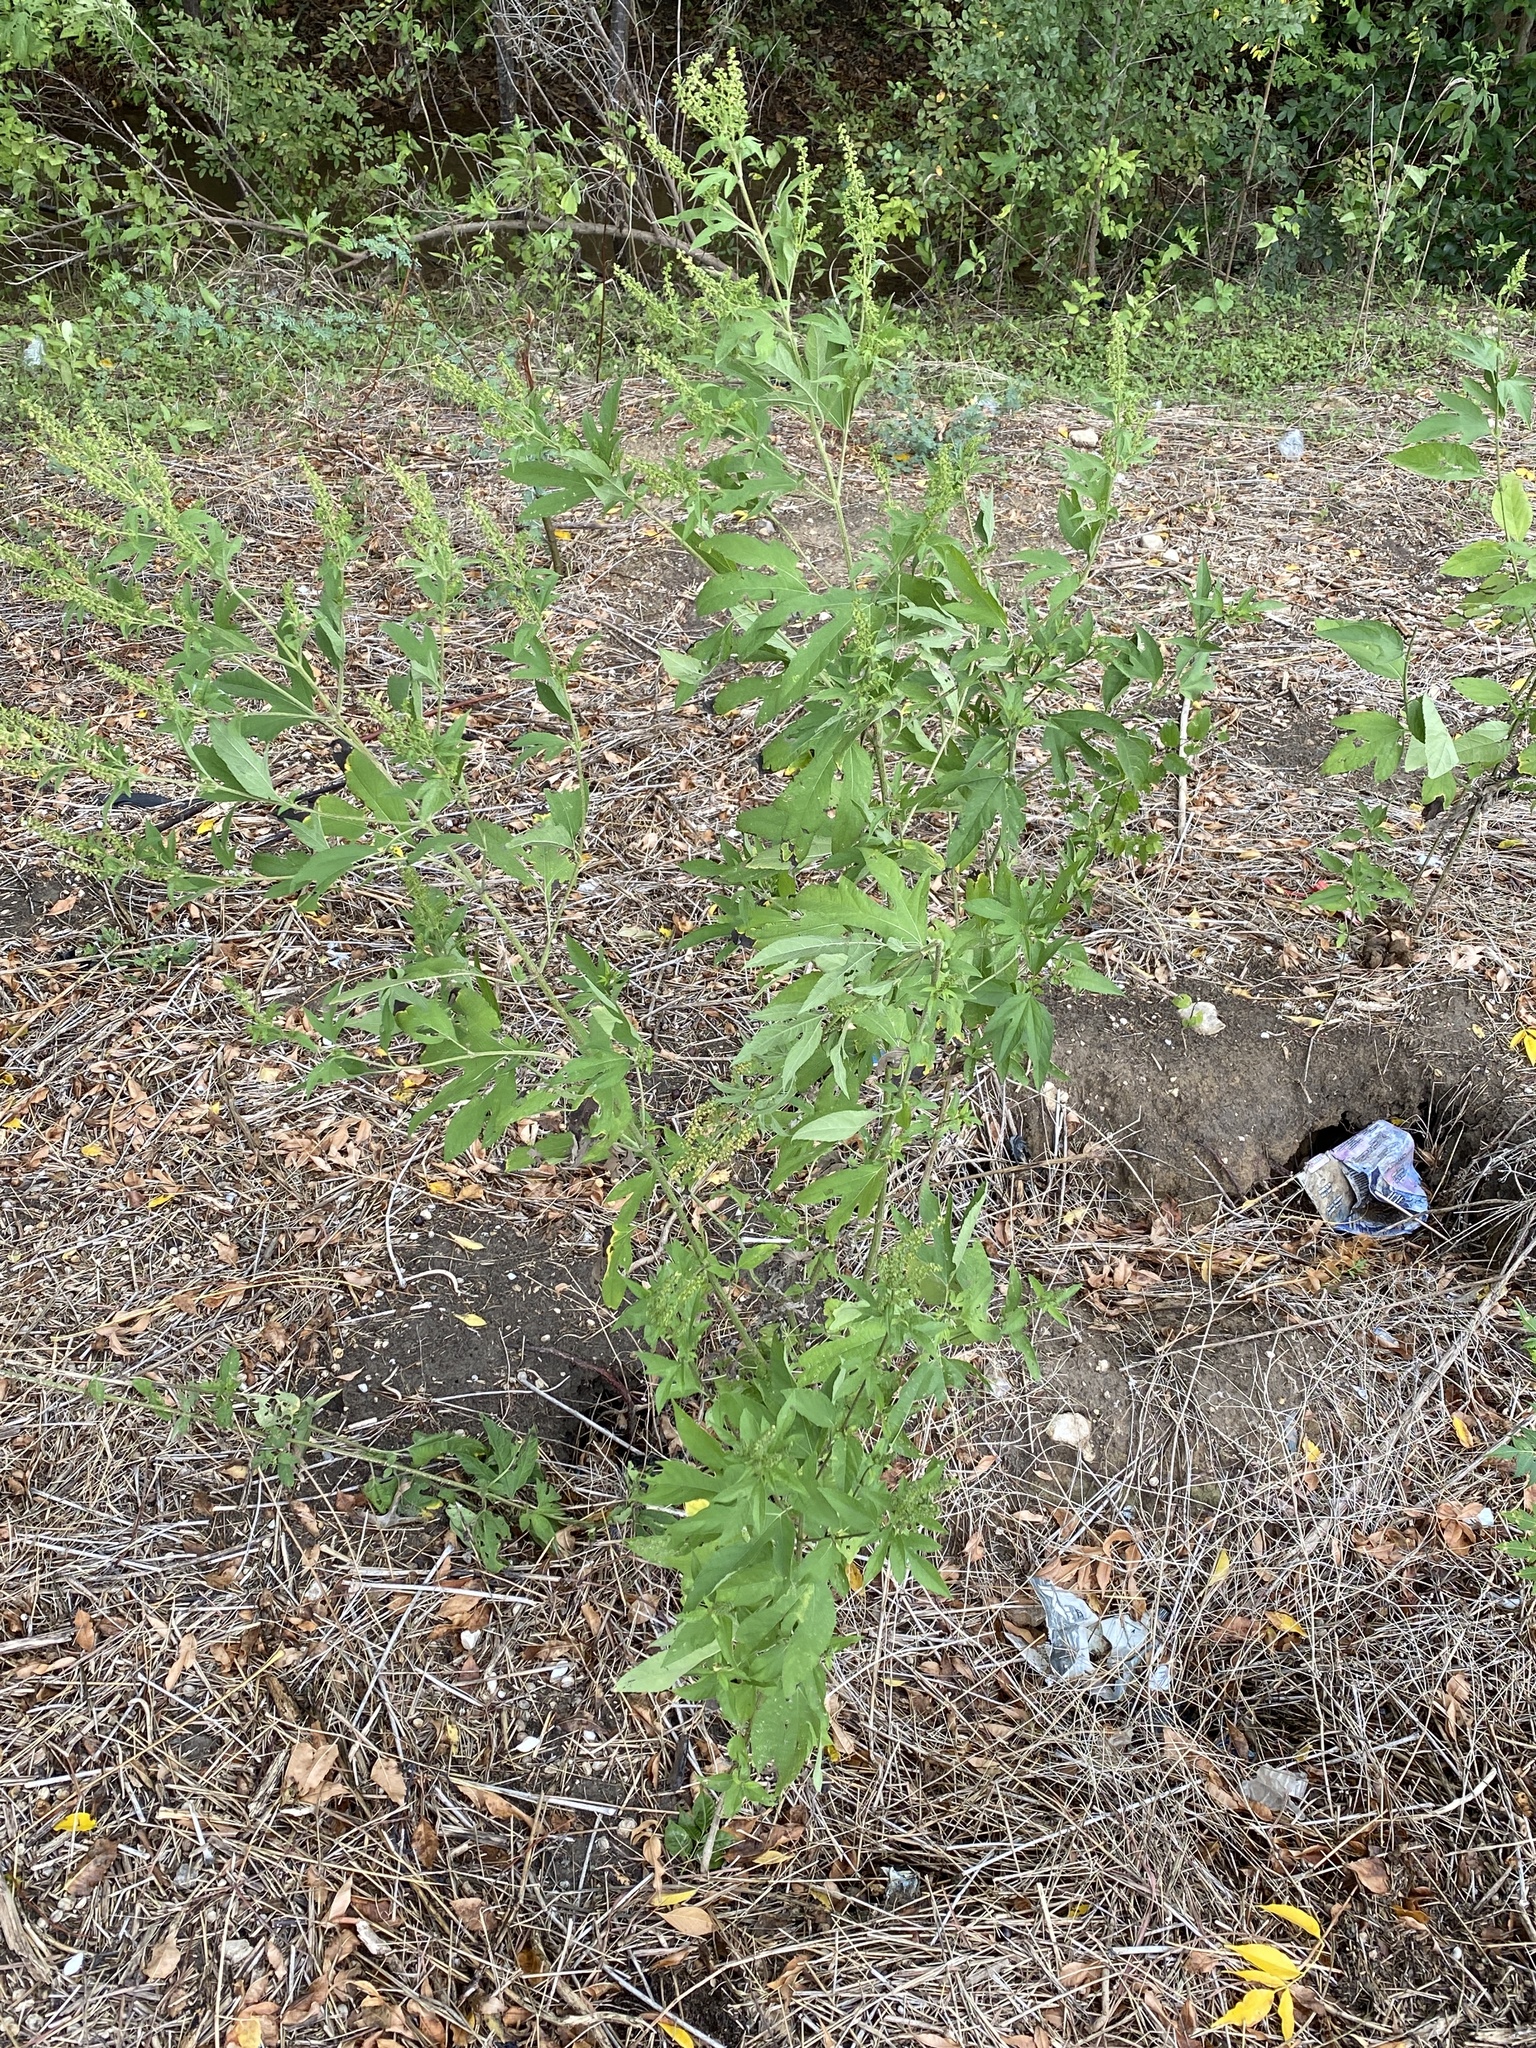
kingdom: Plantae
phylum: Tracheophyta
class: Magnoliopsida
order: Asterales
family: Asteraceae
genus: Ambrosia
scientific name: Ambrosia trifida
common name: Giant ragweed
